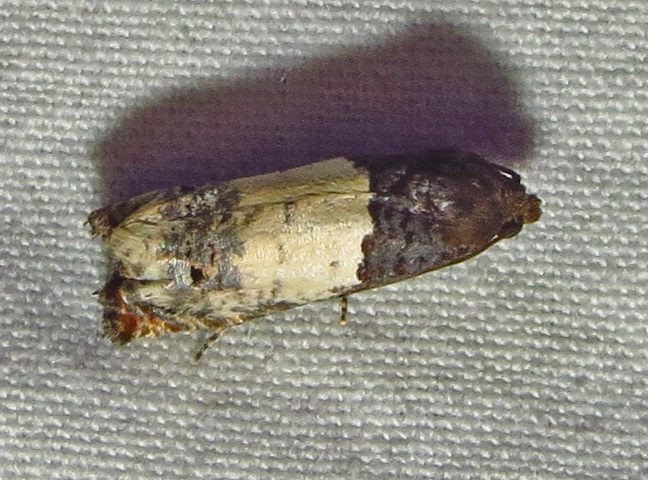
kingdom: Animalia
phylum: Arthropoda
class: Insecta
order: Lepidoptera
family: Tortricidae
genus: Epiblema
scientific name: Epiblema scudderiana
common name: Goldenrod gall moth
